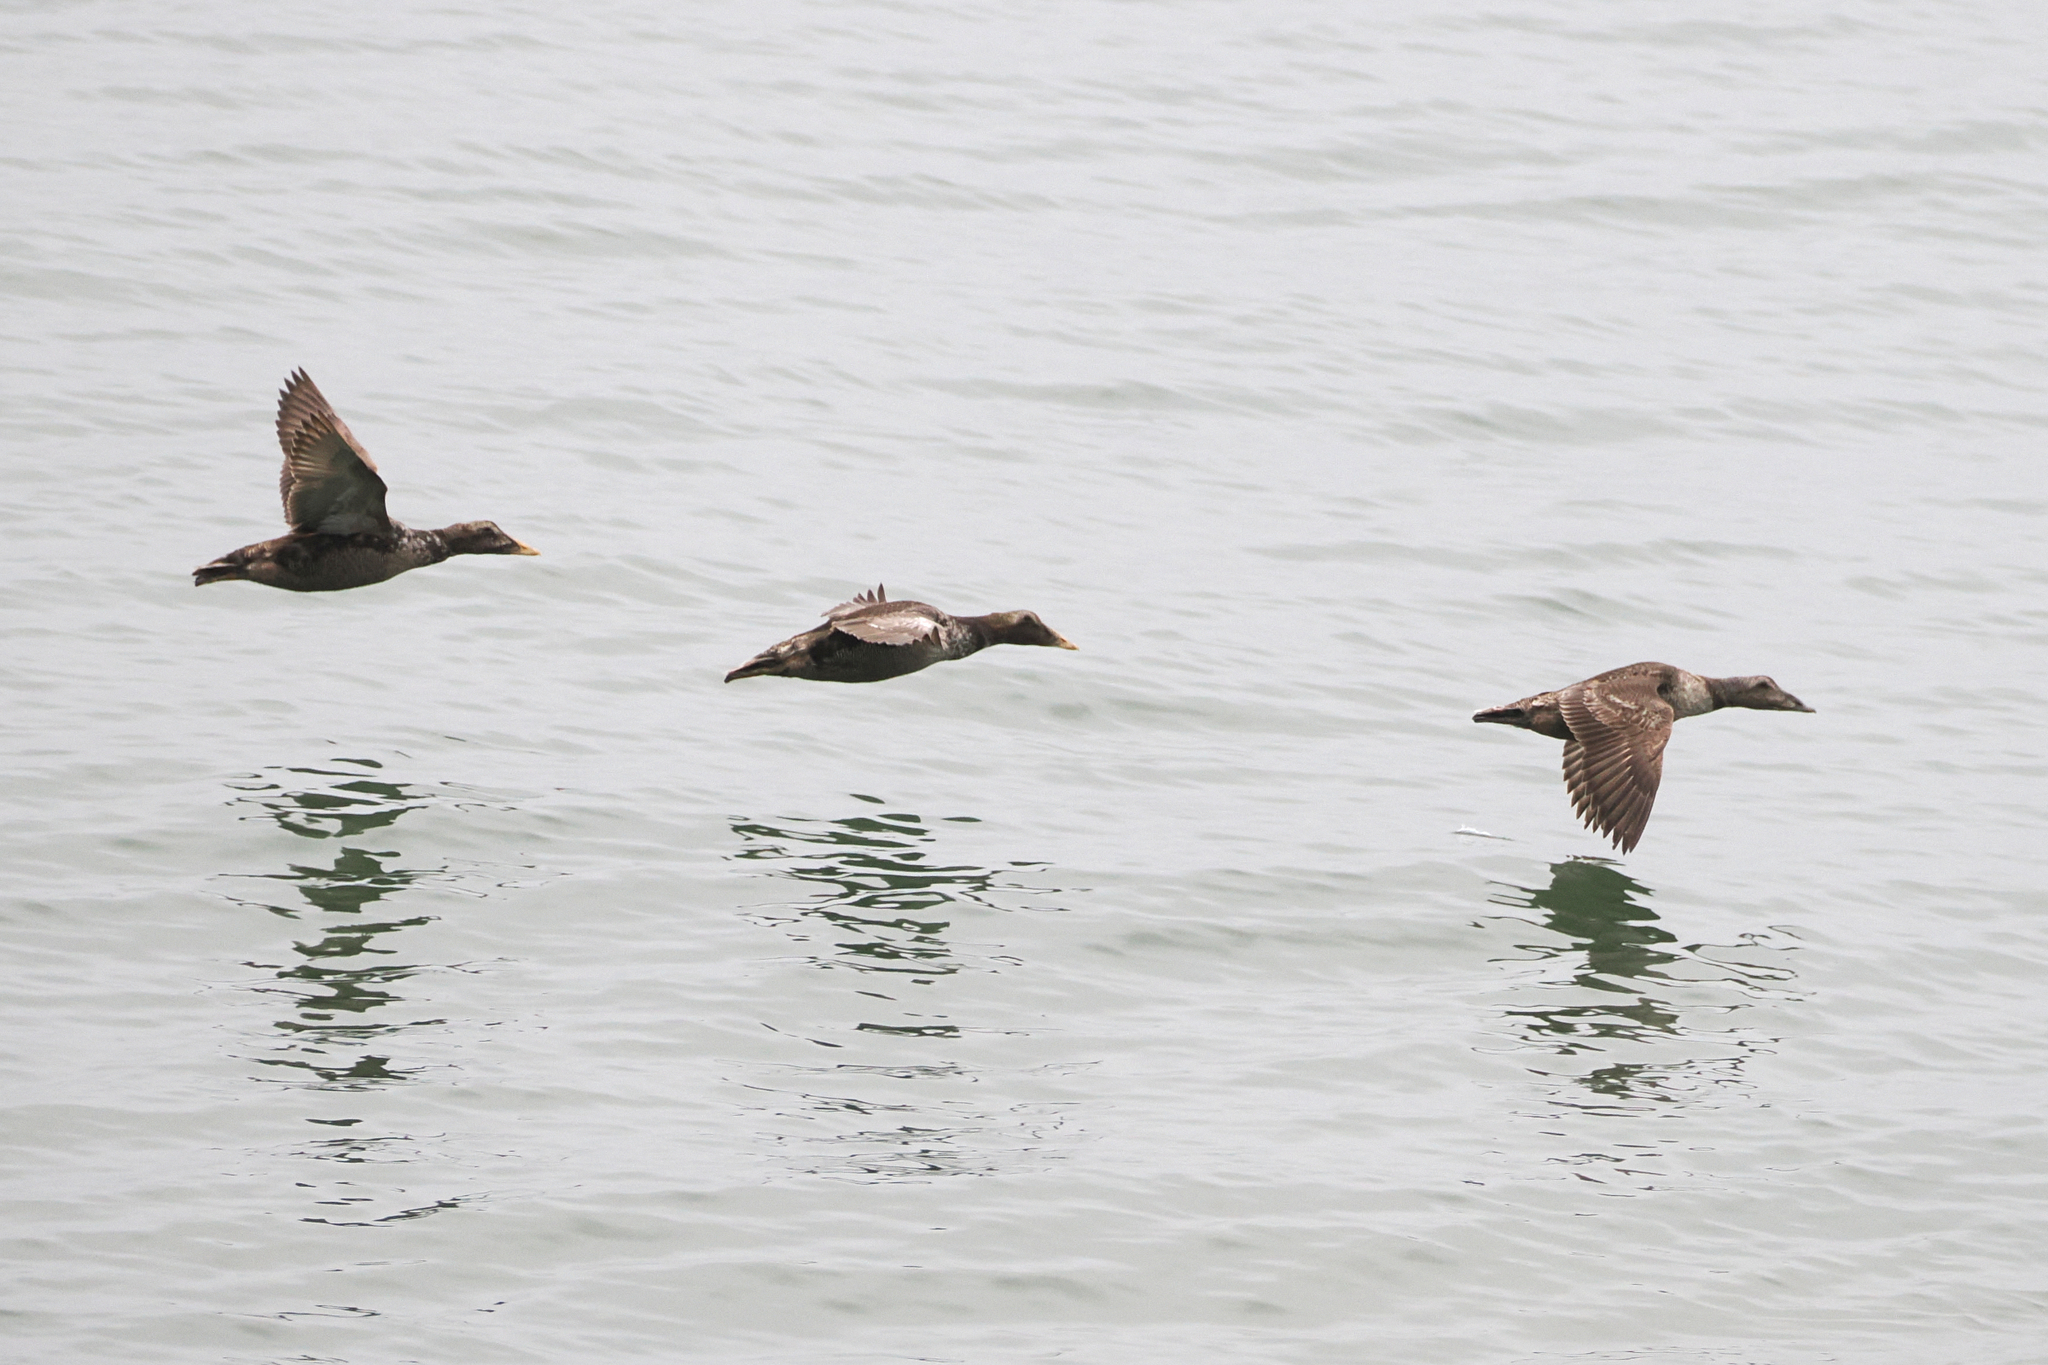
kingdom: Animalia
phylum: Chordata
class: Aves
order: Anseriformes
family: Anatidae
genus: Somateria
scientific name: Somateria mollissima
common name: Common eider
